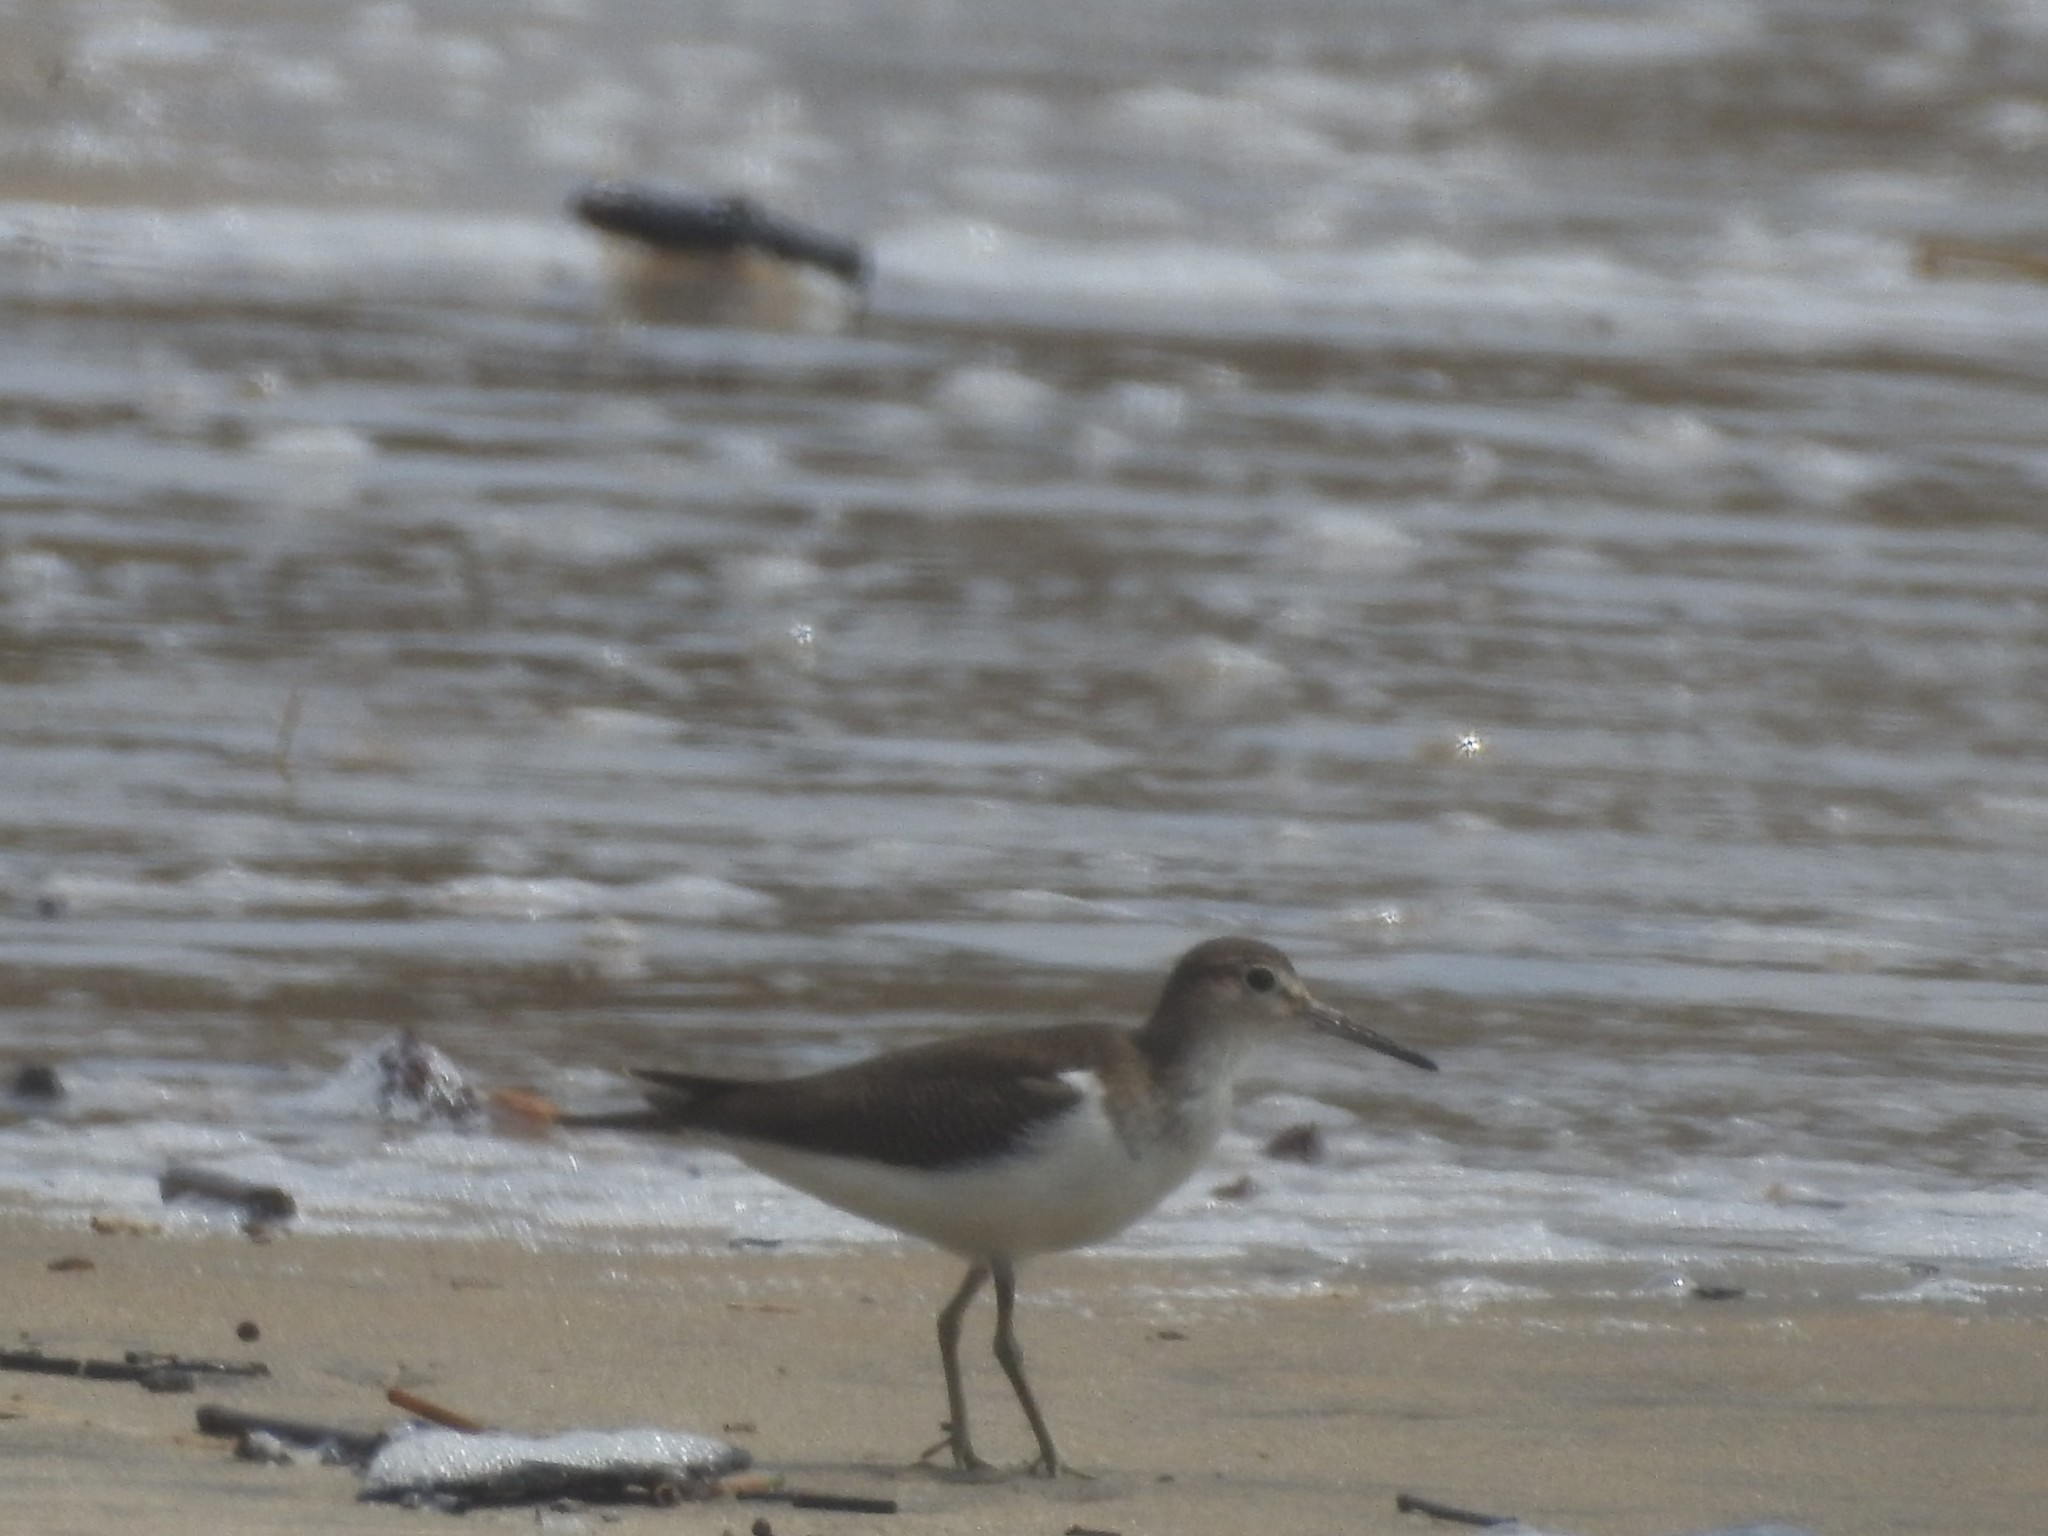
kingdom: Animalia
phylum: Chordata
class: Aves
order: Charadriiformes
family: Scolopacidae
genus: Actitis
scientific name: Actitis hypoleucos
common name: Common sandpiper
